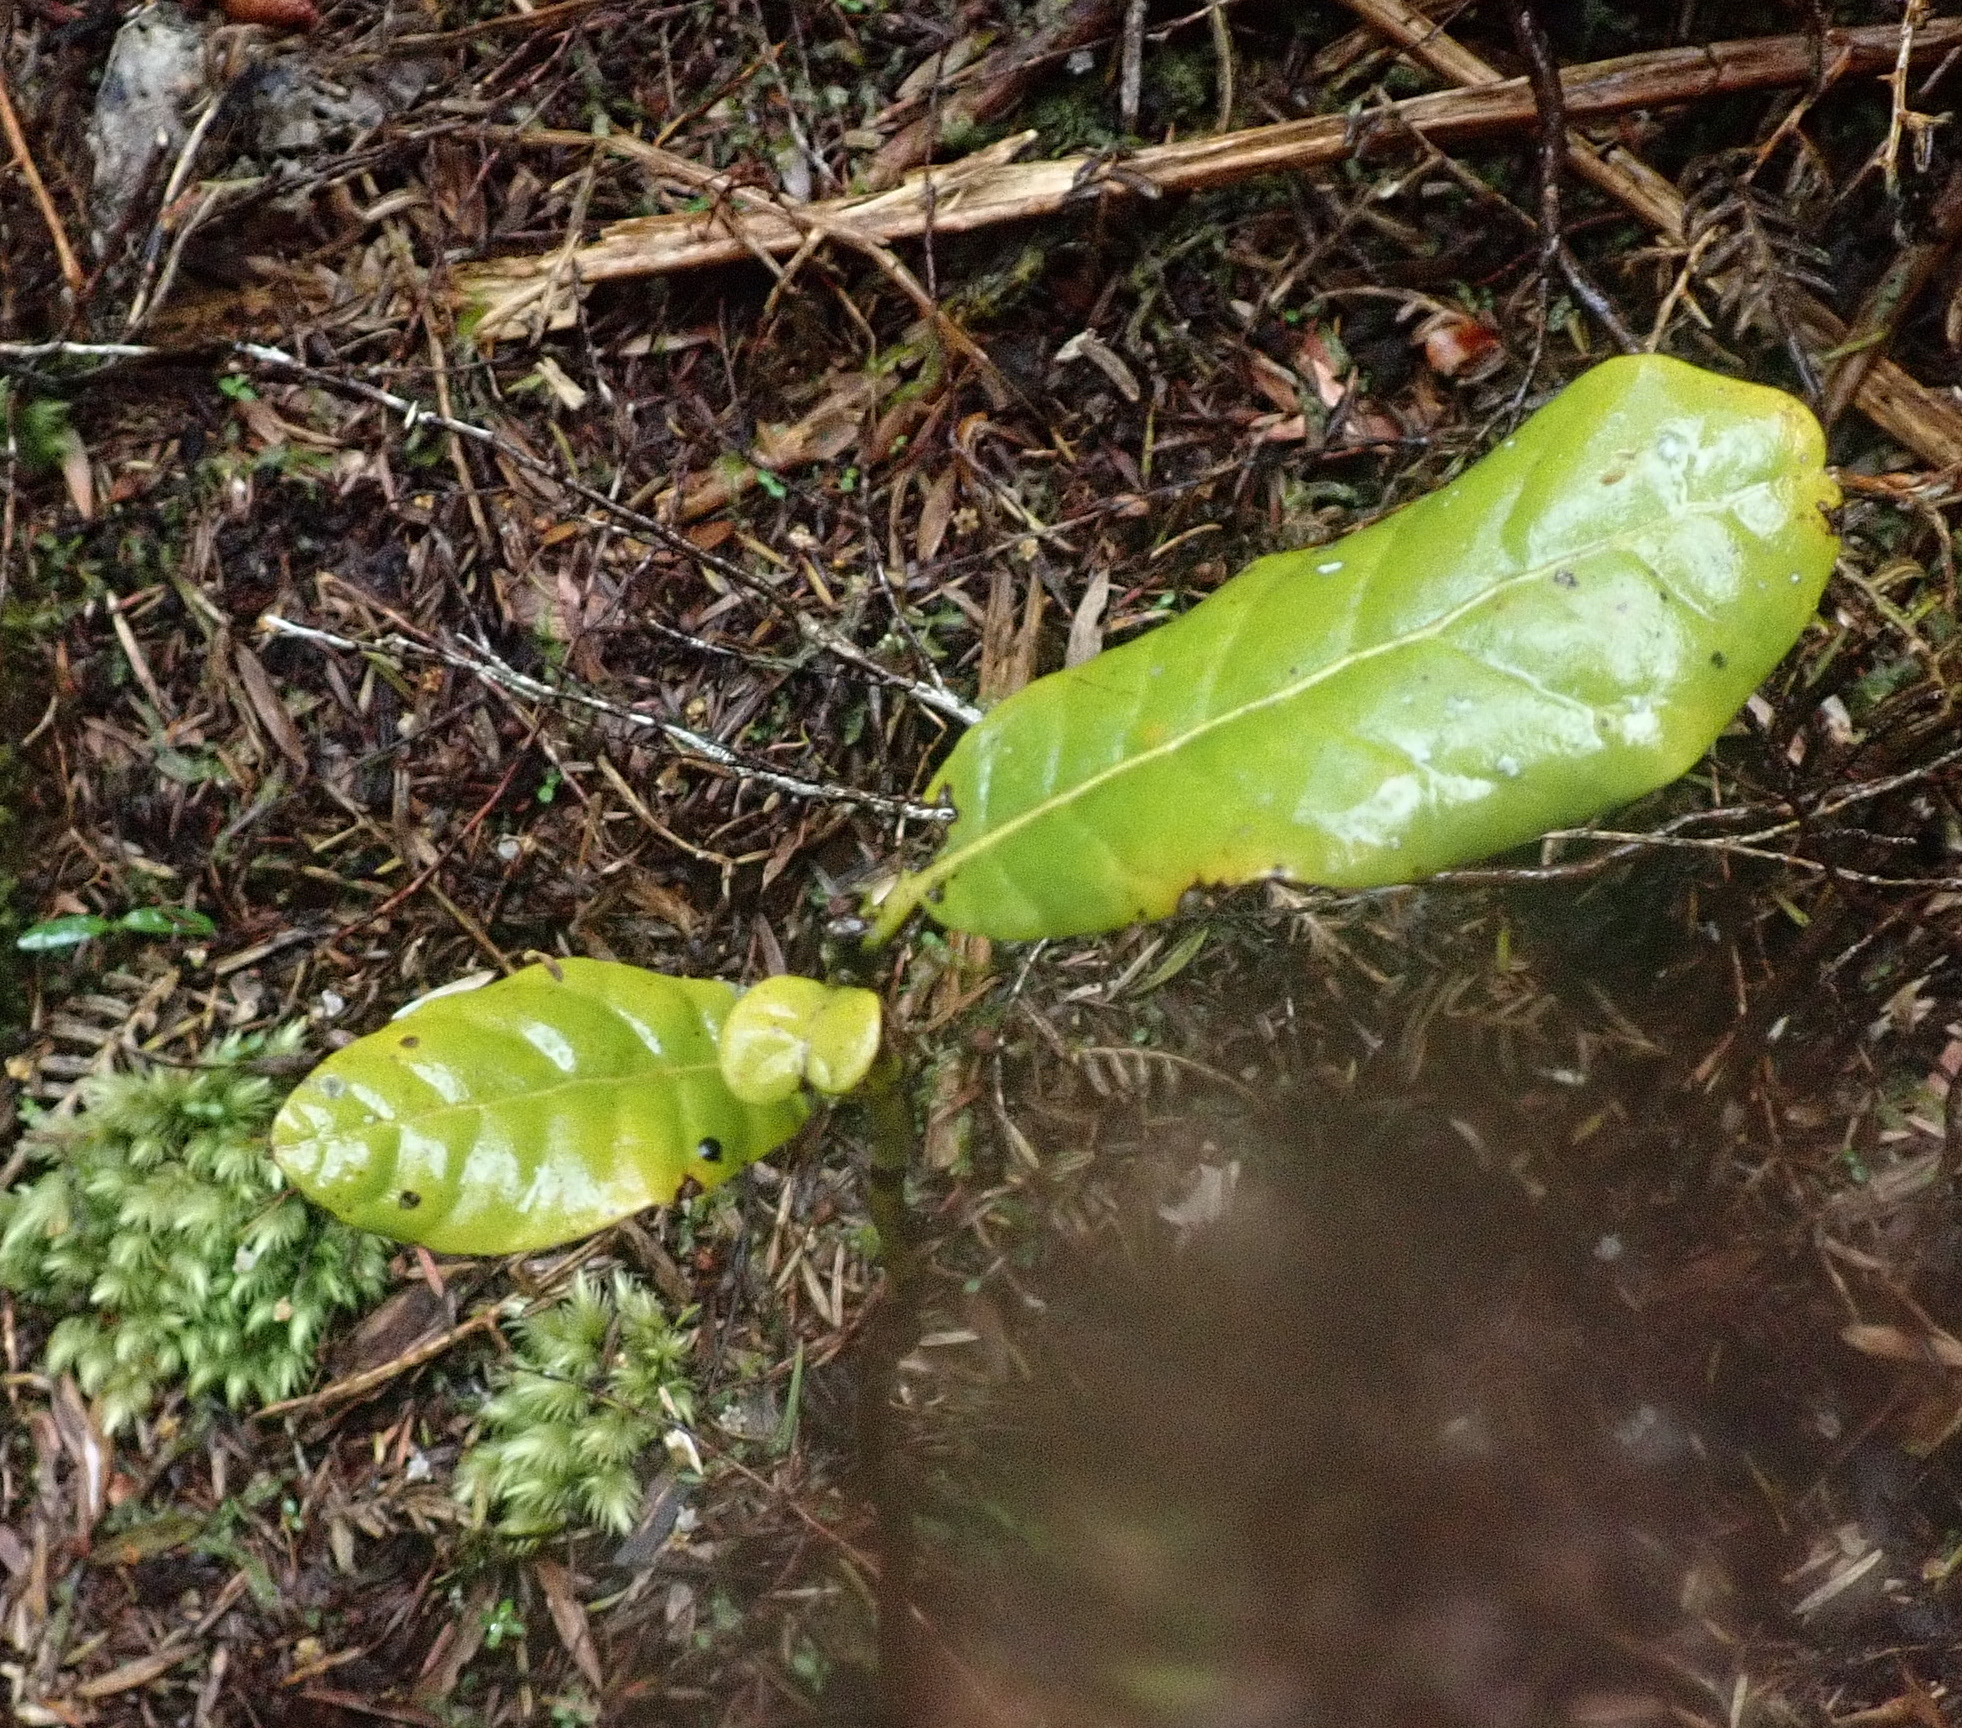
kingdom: Plantae
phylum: Tracheophyta
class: Magnoliopsida
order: Laurales
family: Lauraceae
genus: Beilschmiedia
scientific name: Beilschmiedia tarairi
